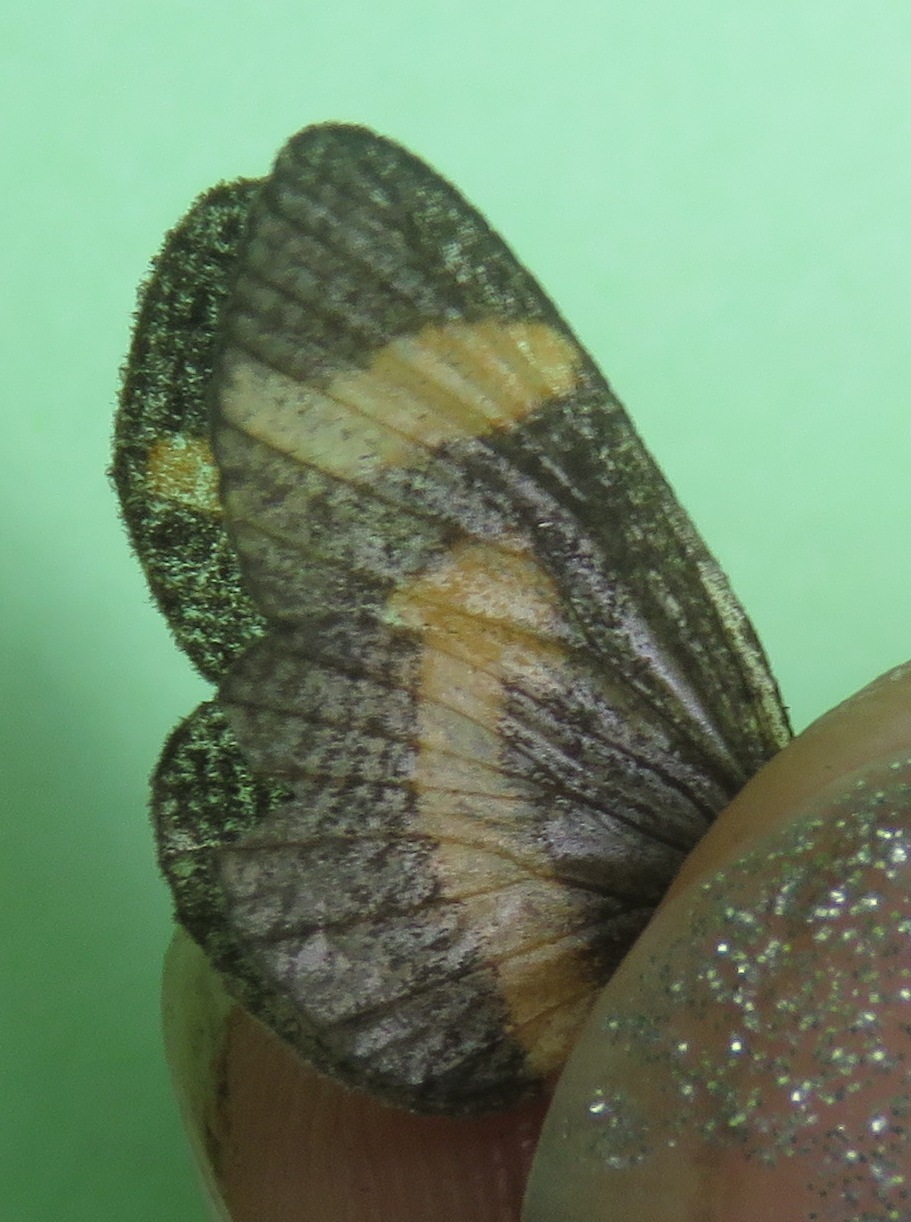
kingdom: Animalia
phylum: Arthropoda
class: Insecta
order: Lepidoptera
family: Nymphalidae
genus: Microtia
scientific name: Microtia elva
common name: Elf
